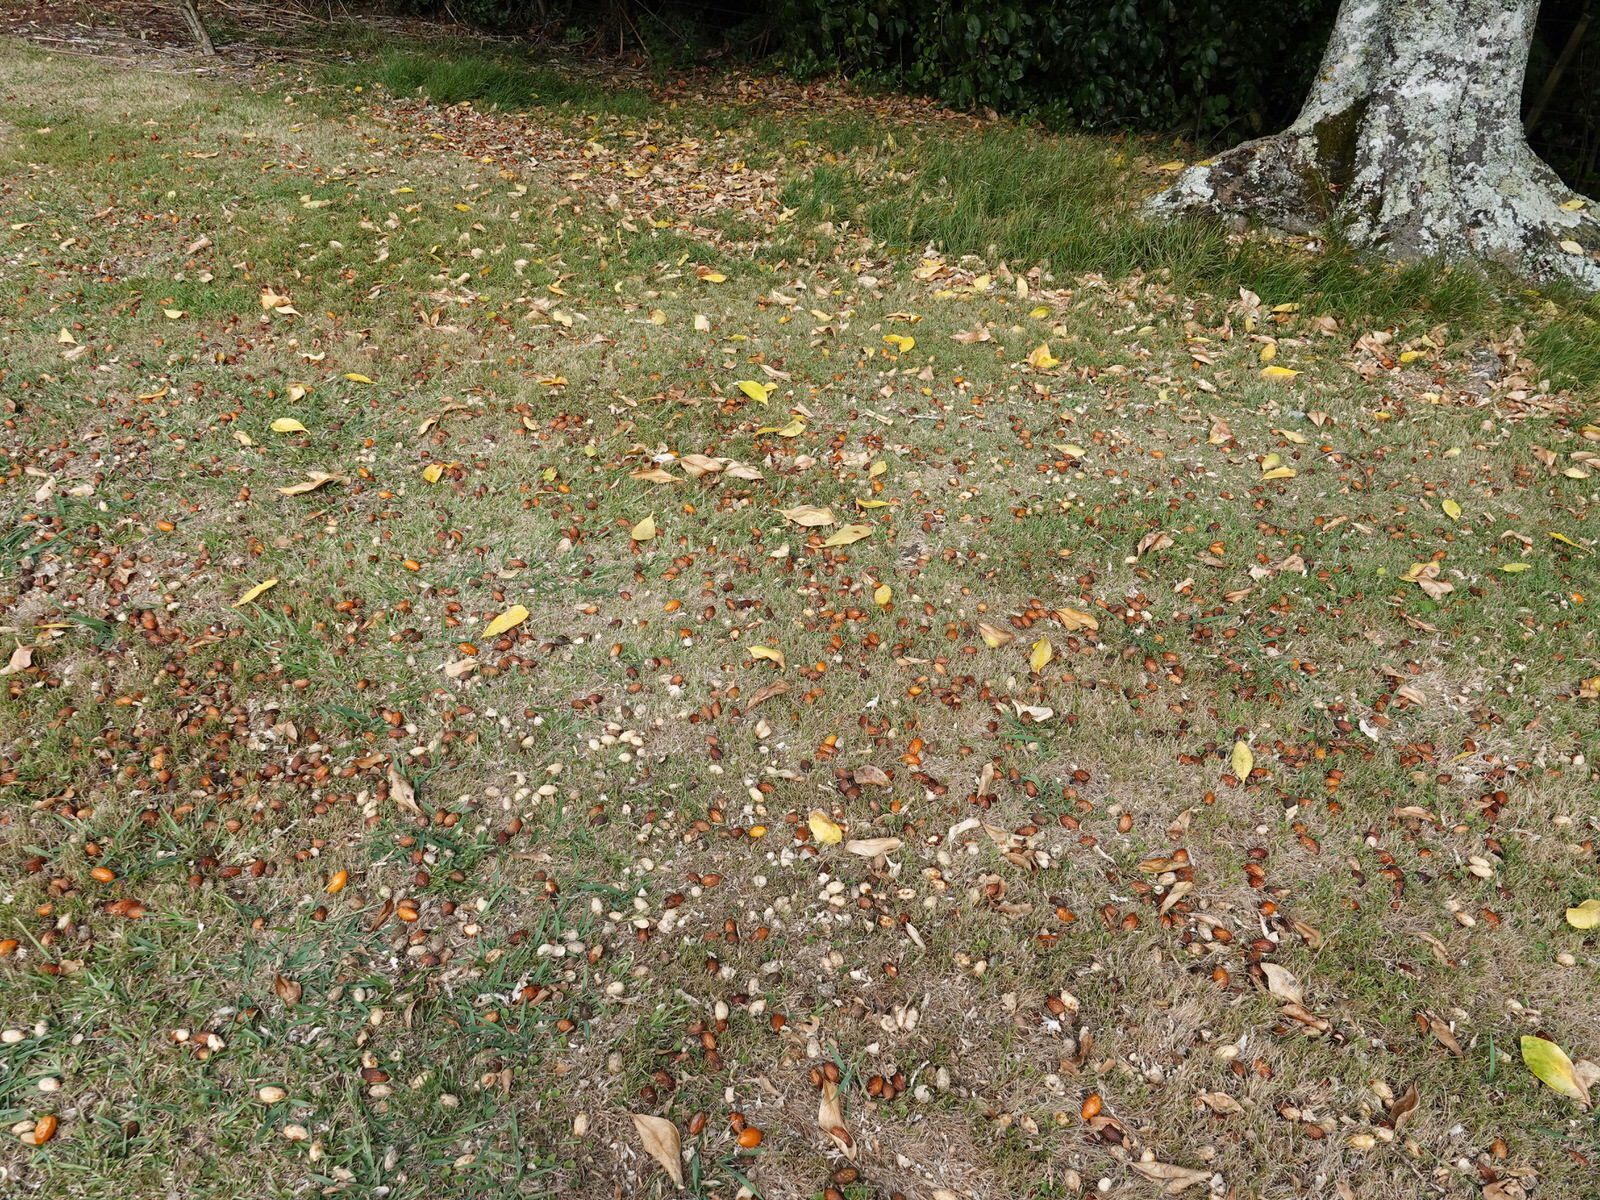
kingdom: Plantae
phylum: Tracheophyta
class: Magnoliopsida
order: Cucurbitales
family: Corynocarpaceae
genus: Corynocarpus
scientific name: Corynocarpus laevigatus
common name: New zealand laurel
